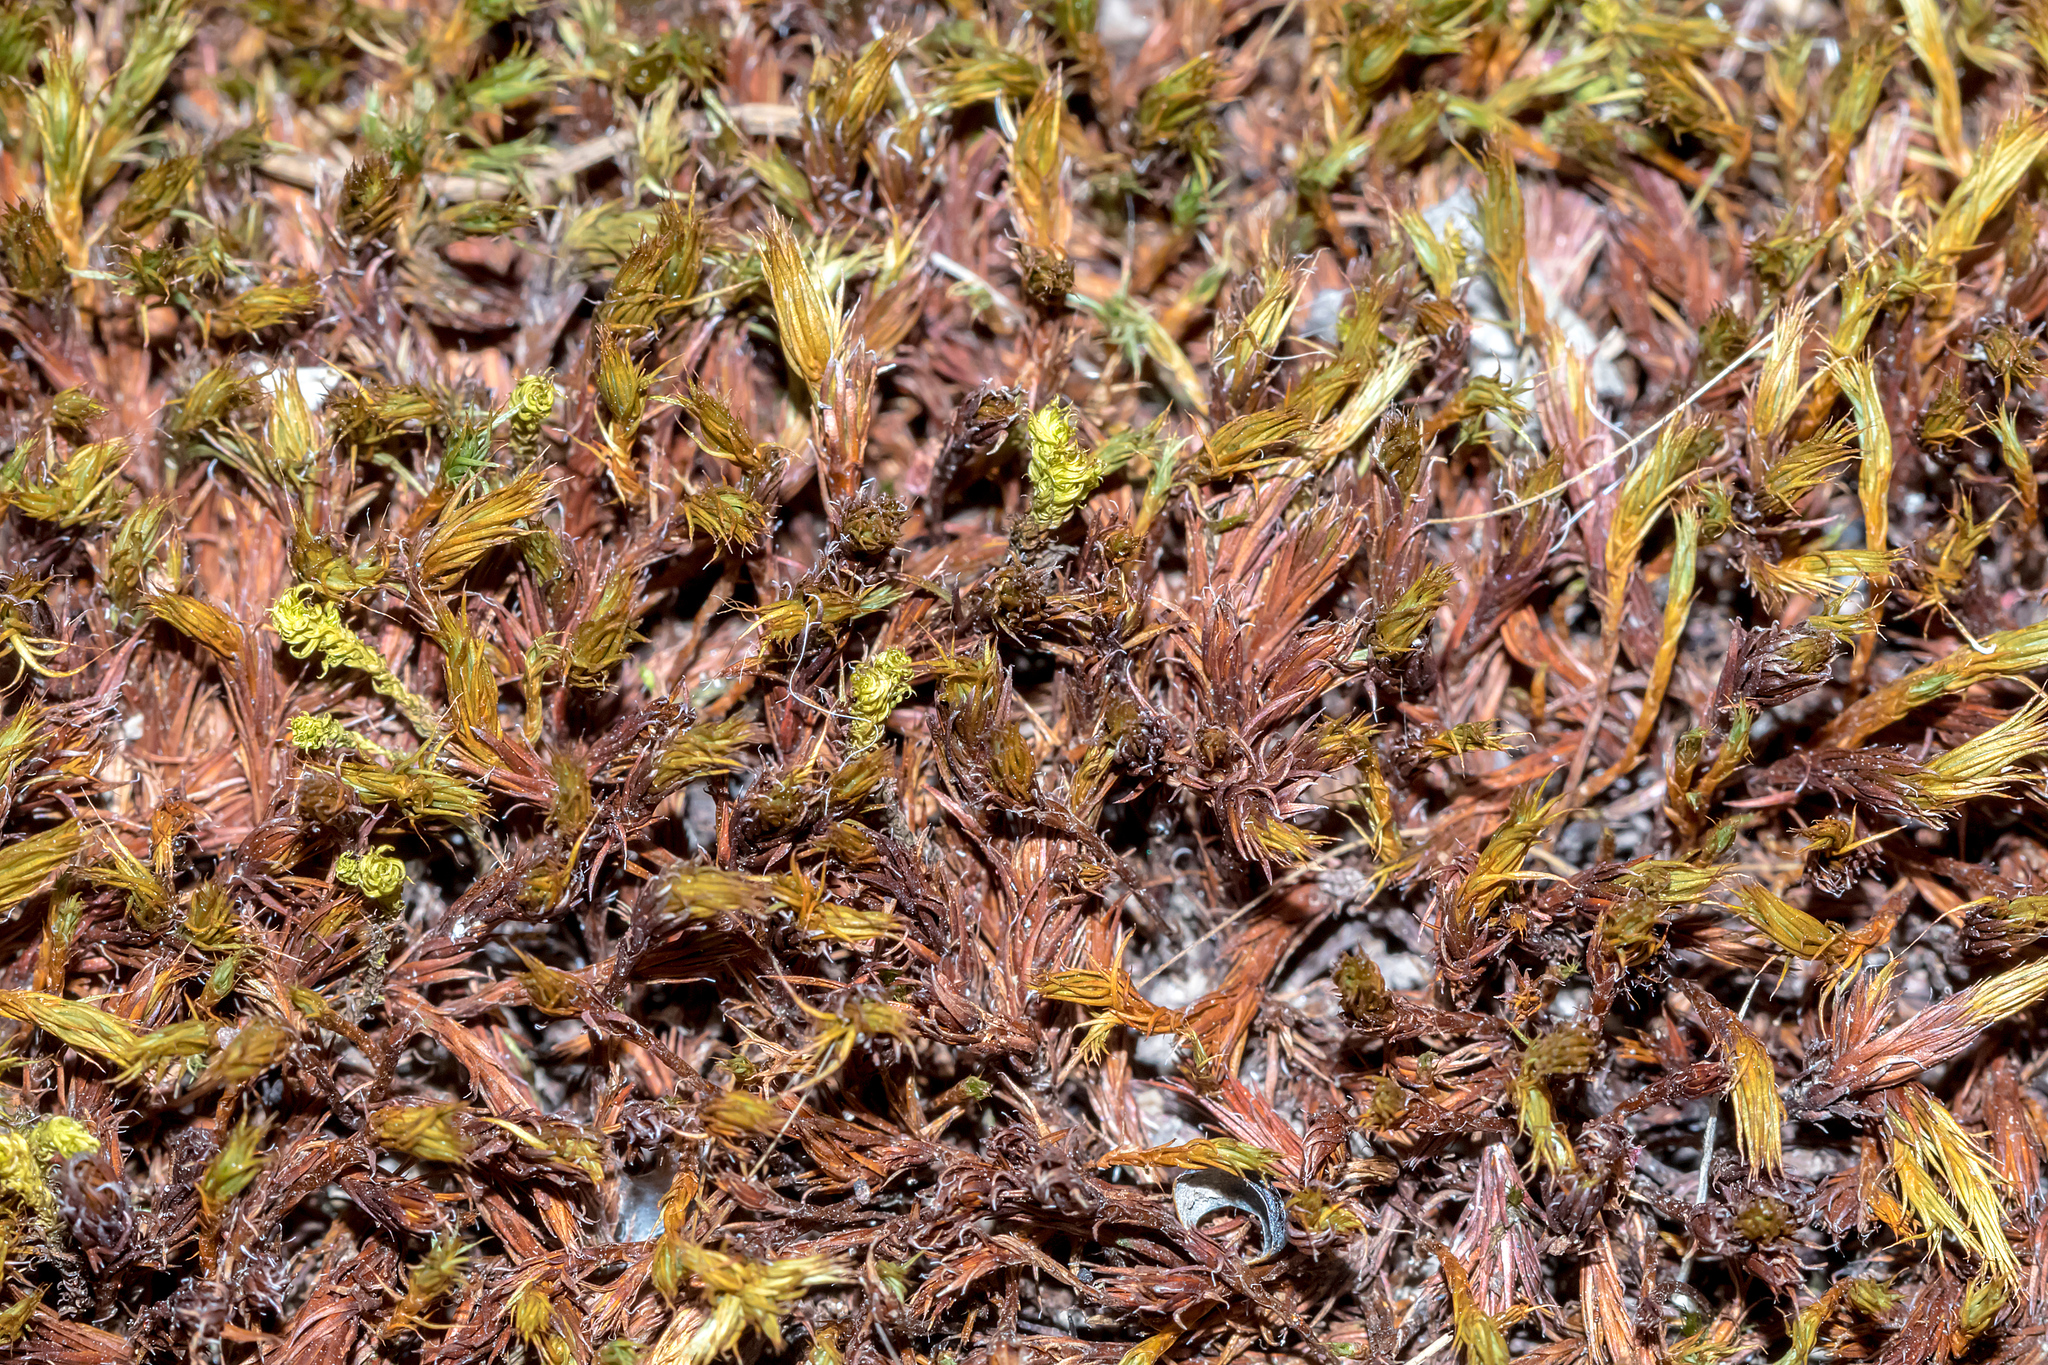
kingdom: Plantae
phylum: Bryophyta
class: Polytrichopsida
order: Polytrichales
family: Polytrichaceae
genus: Polytrichum
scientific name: Polytrichum juniperinum
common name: Juniper haircap moss
